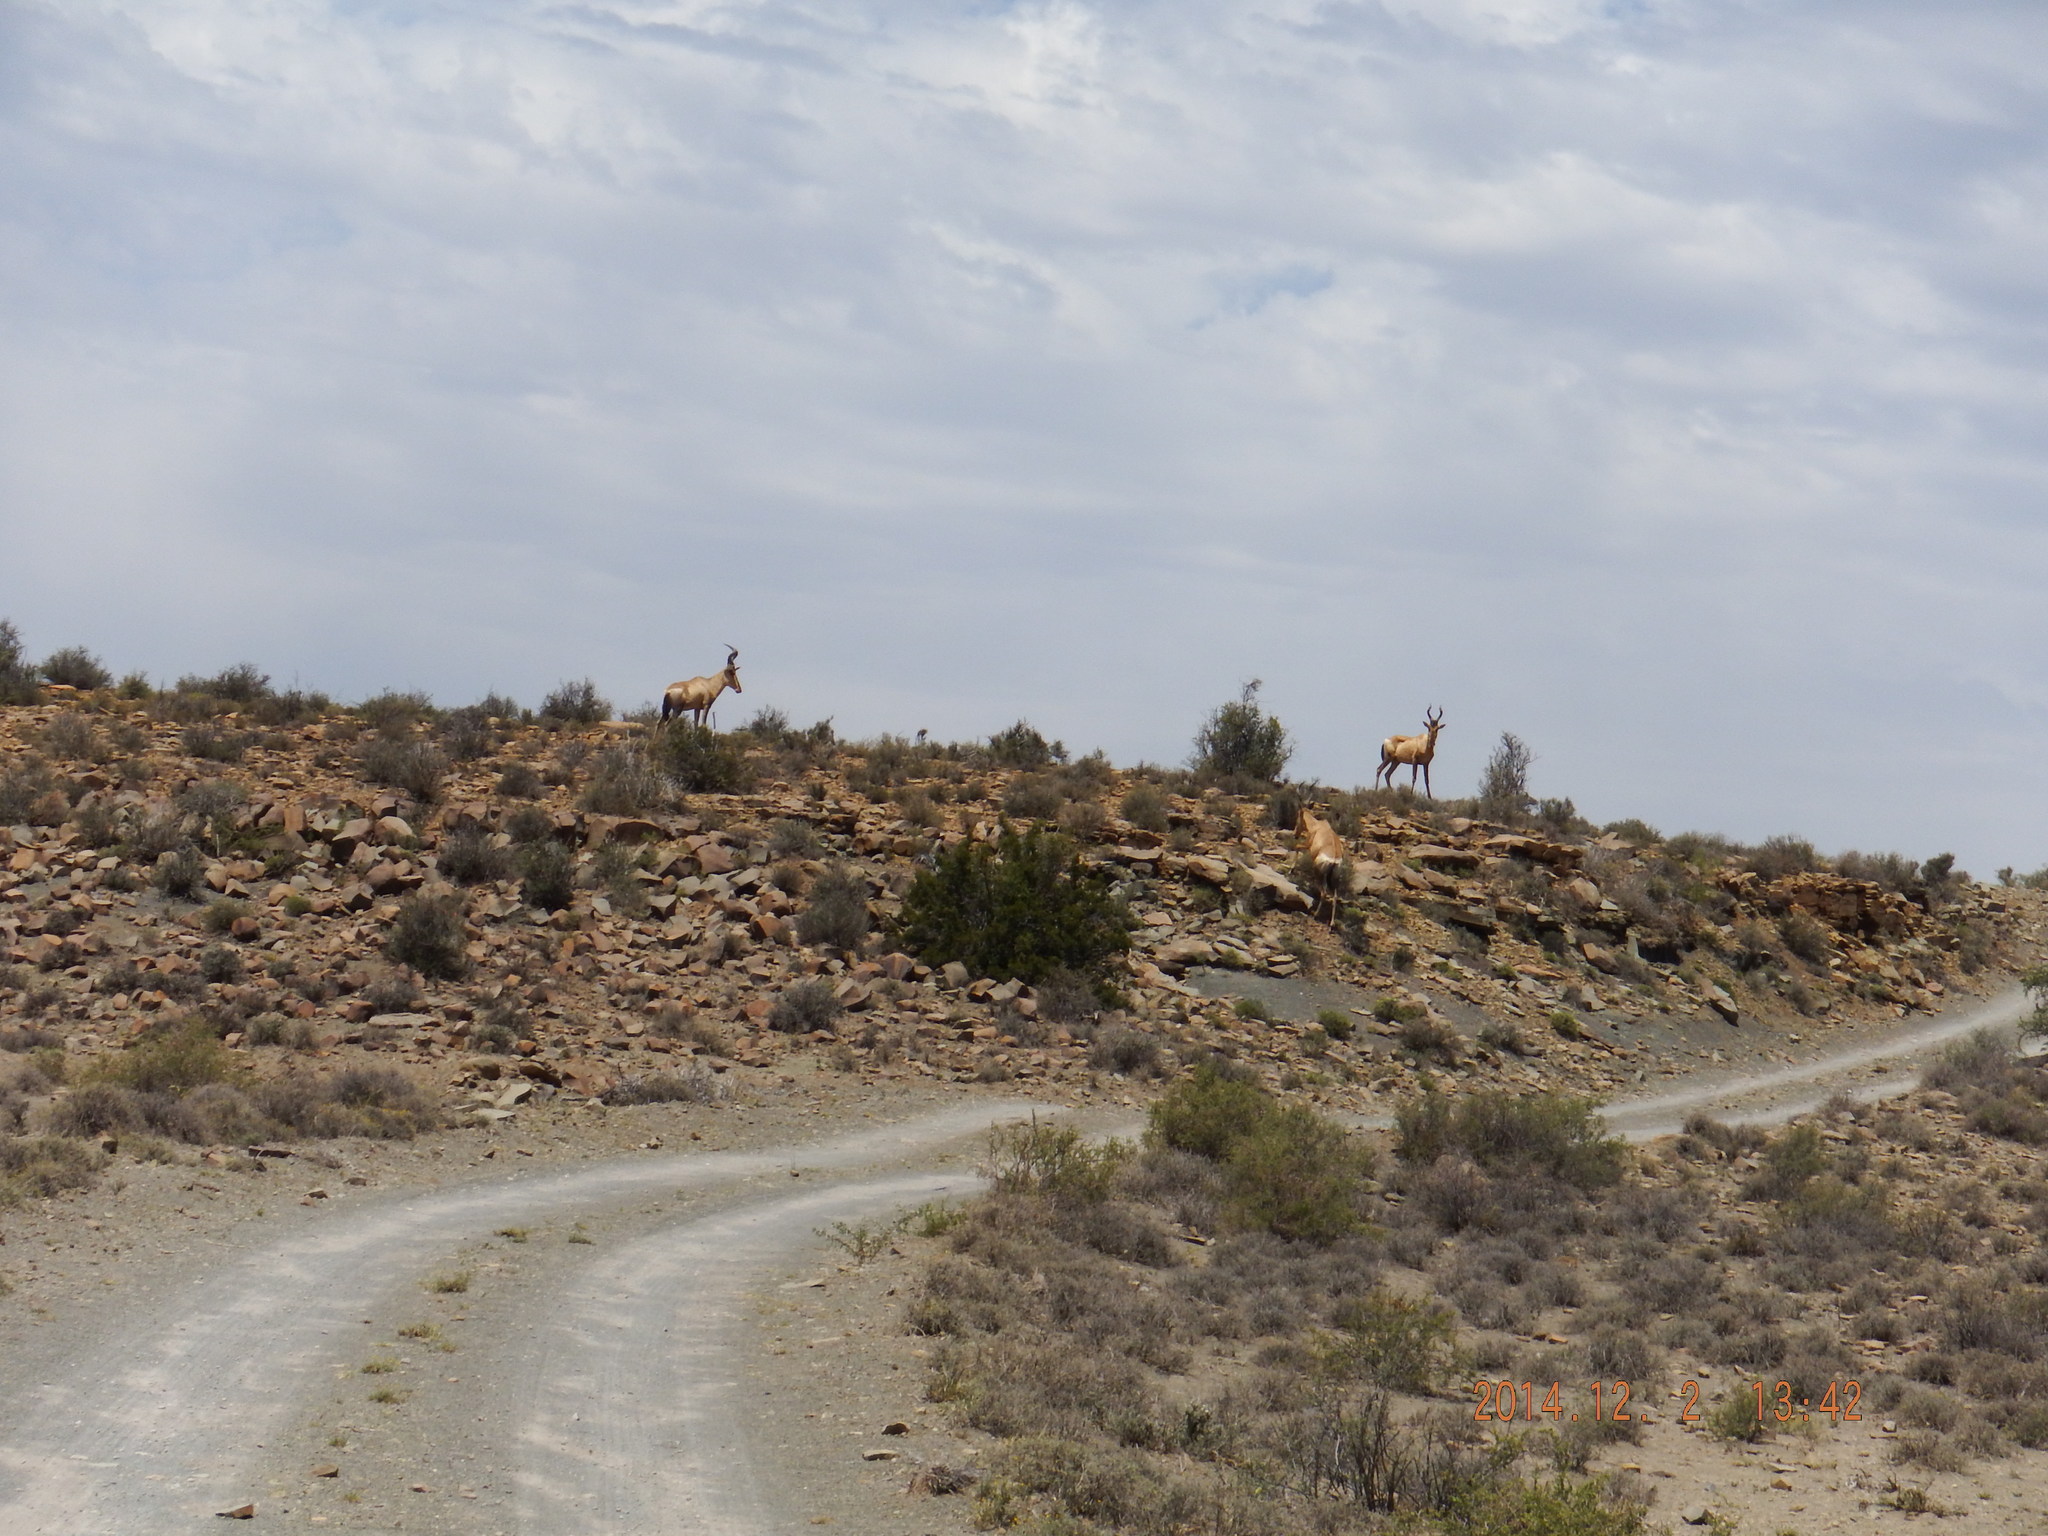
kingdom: Animalia
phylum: Chordata
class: Mammalia
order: Artiodactyla
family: Bovidae
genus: Alcelaphus
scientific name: Alcelaphus caama
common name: Red hartebeest
